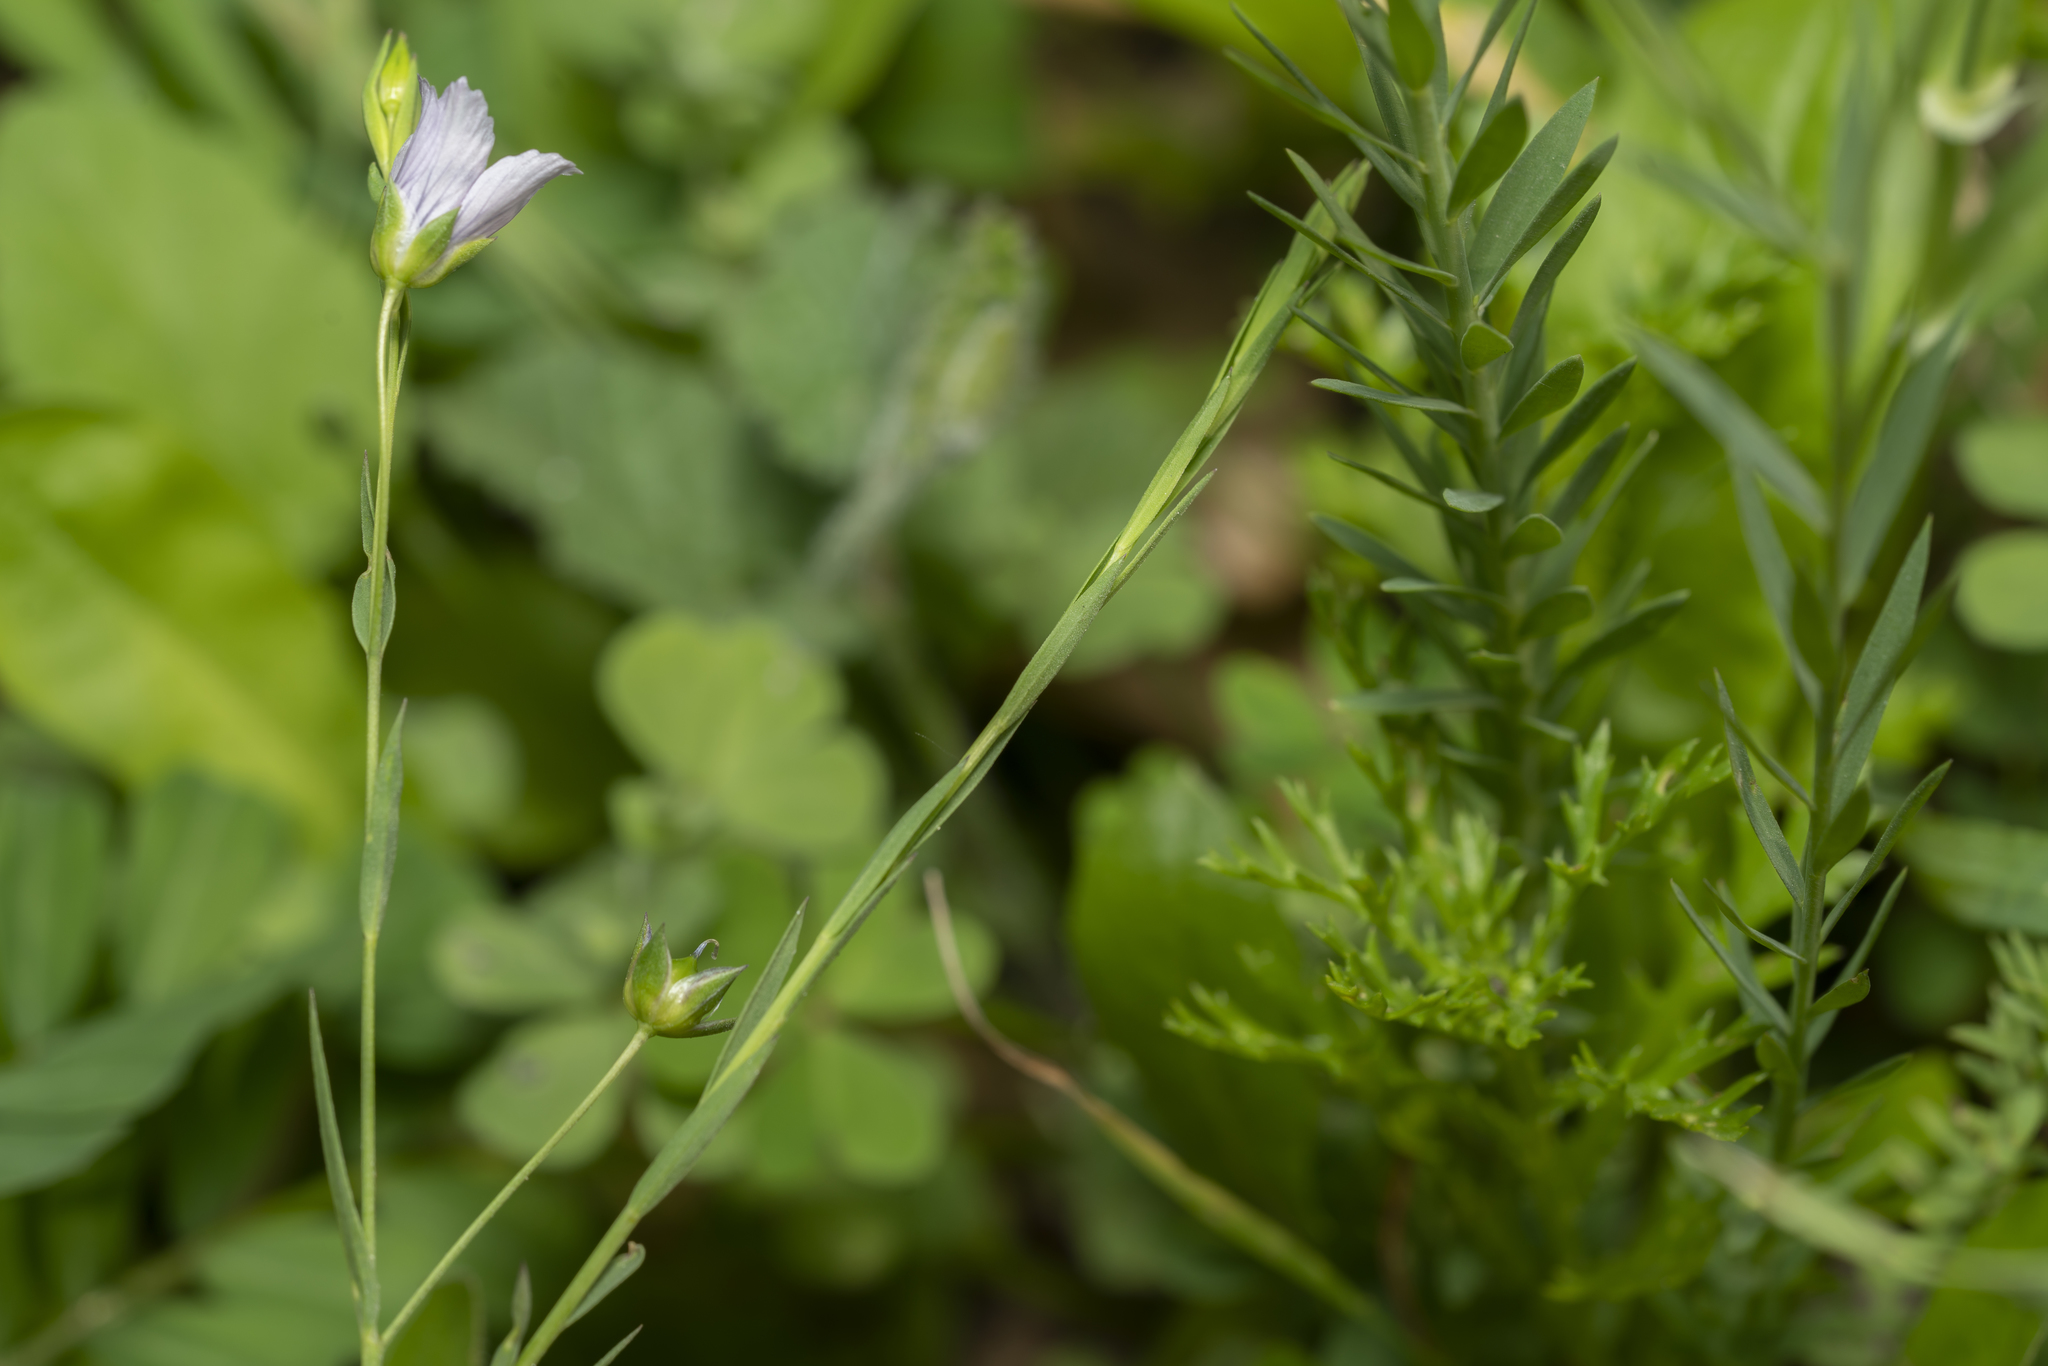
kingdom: Plantae
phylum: Tracheophyta
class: Magnoliopsida
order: Malpighiales
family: Linaceae
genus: Linum
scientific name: Linum bienne
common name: Pale flax
